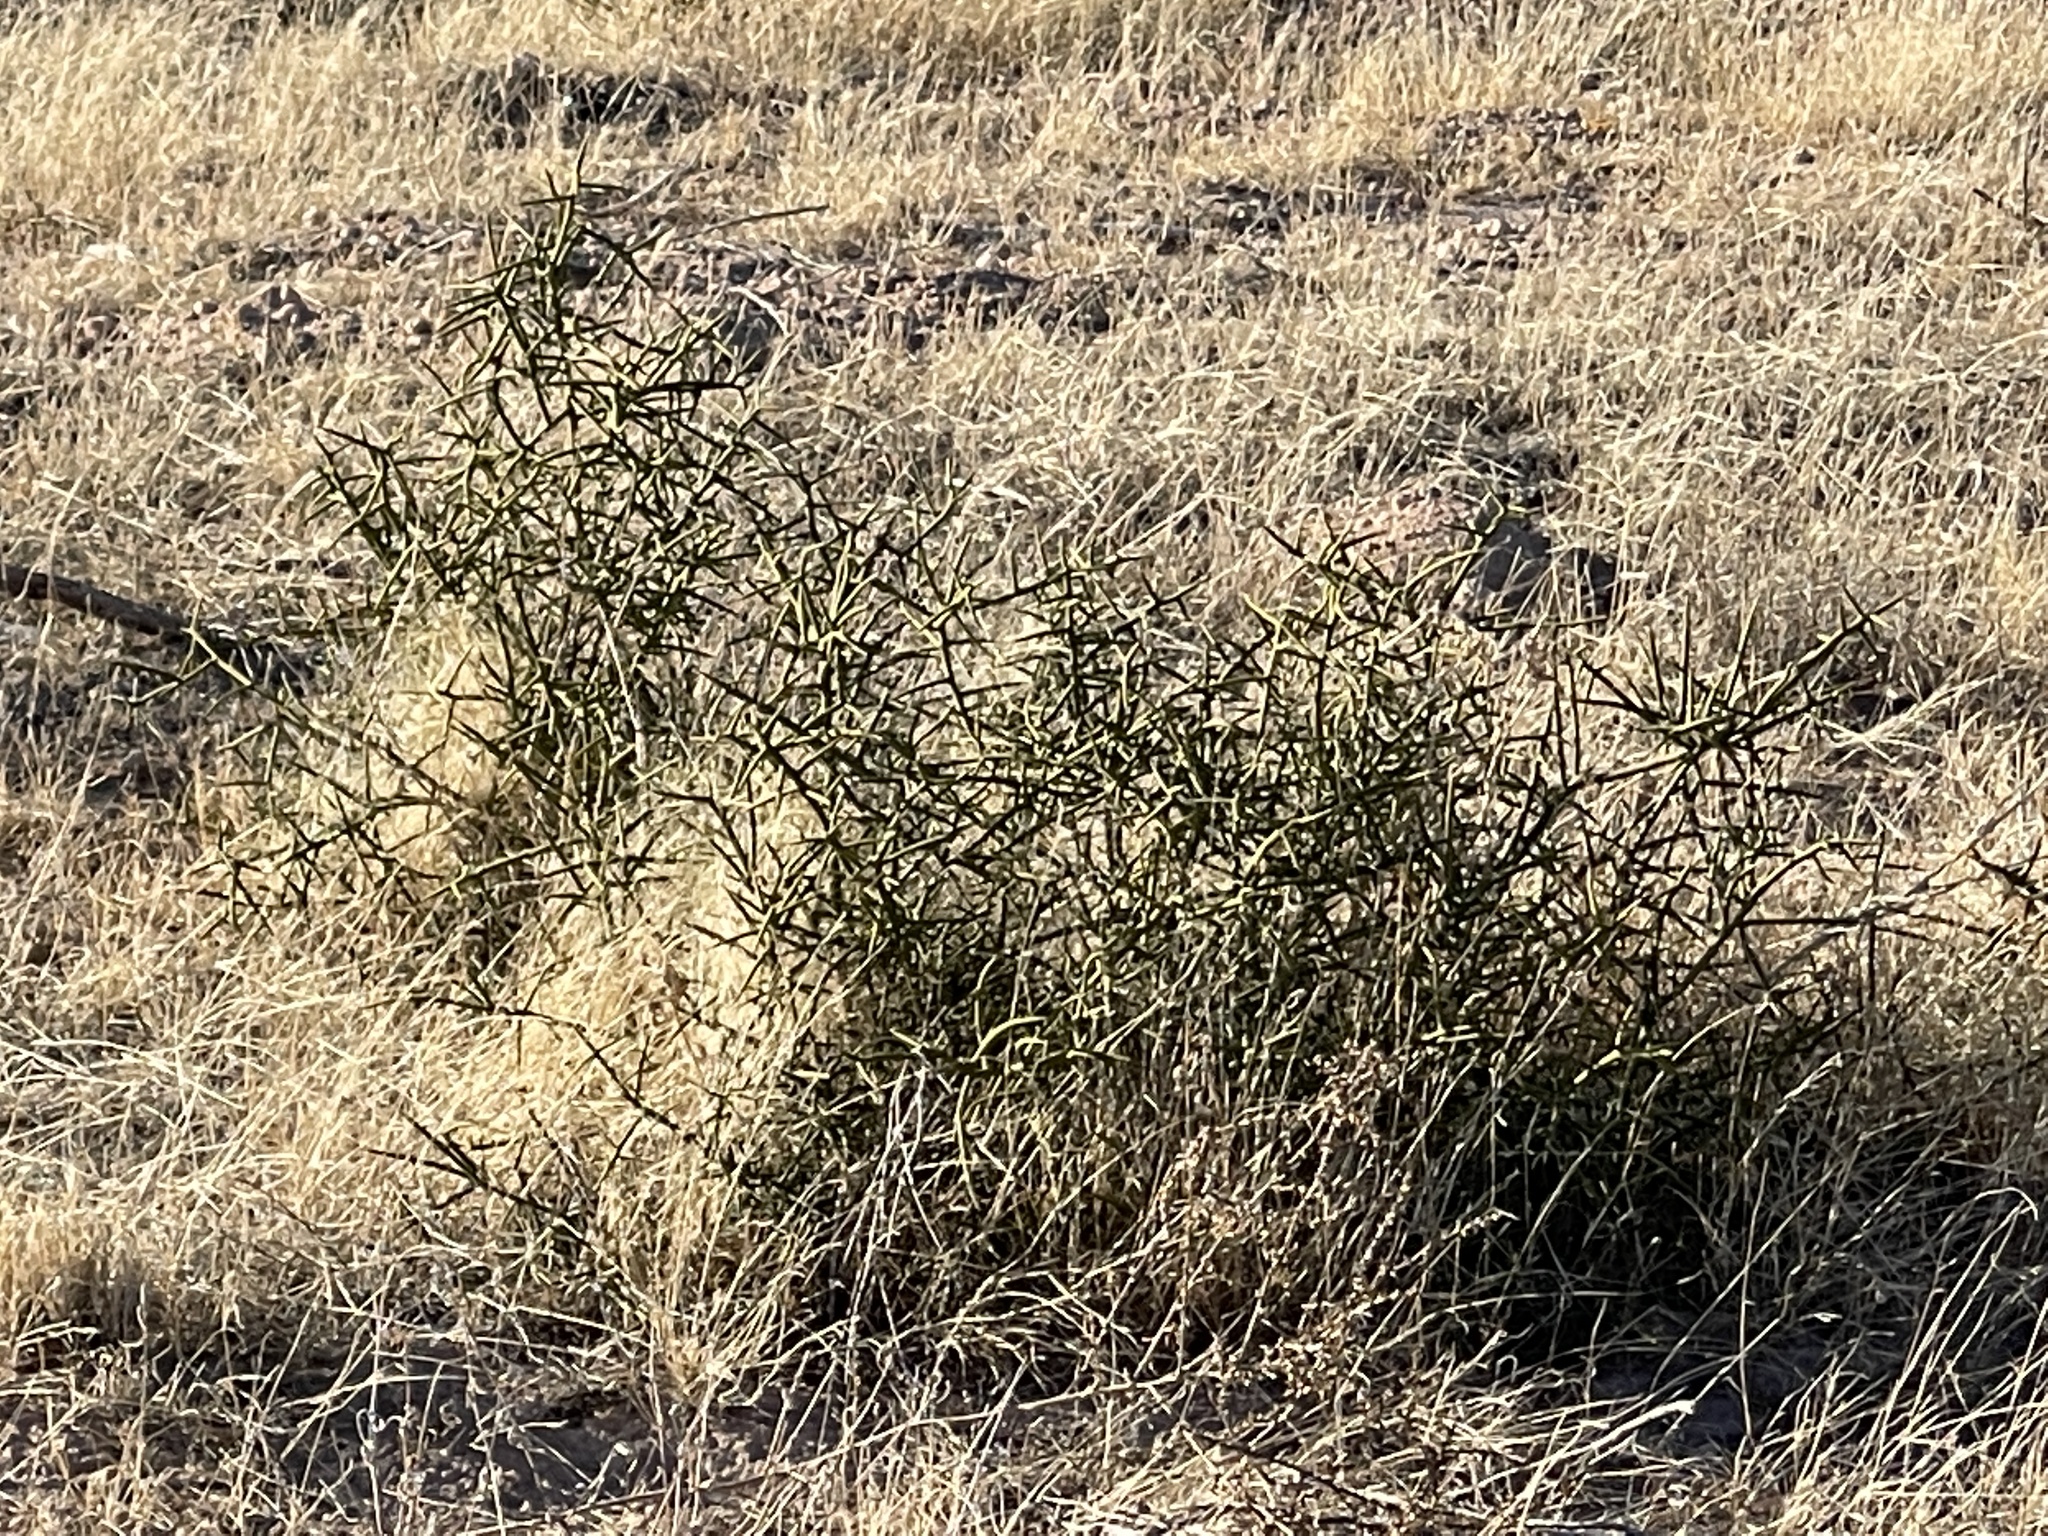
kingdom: Plantae
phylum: Tracheophyta
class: Magnoliopsida
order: Brassicales
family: Koeberliniaceae
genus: Koeberlinia
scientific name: Koeberlinia spinosa
